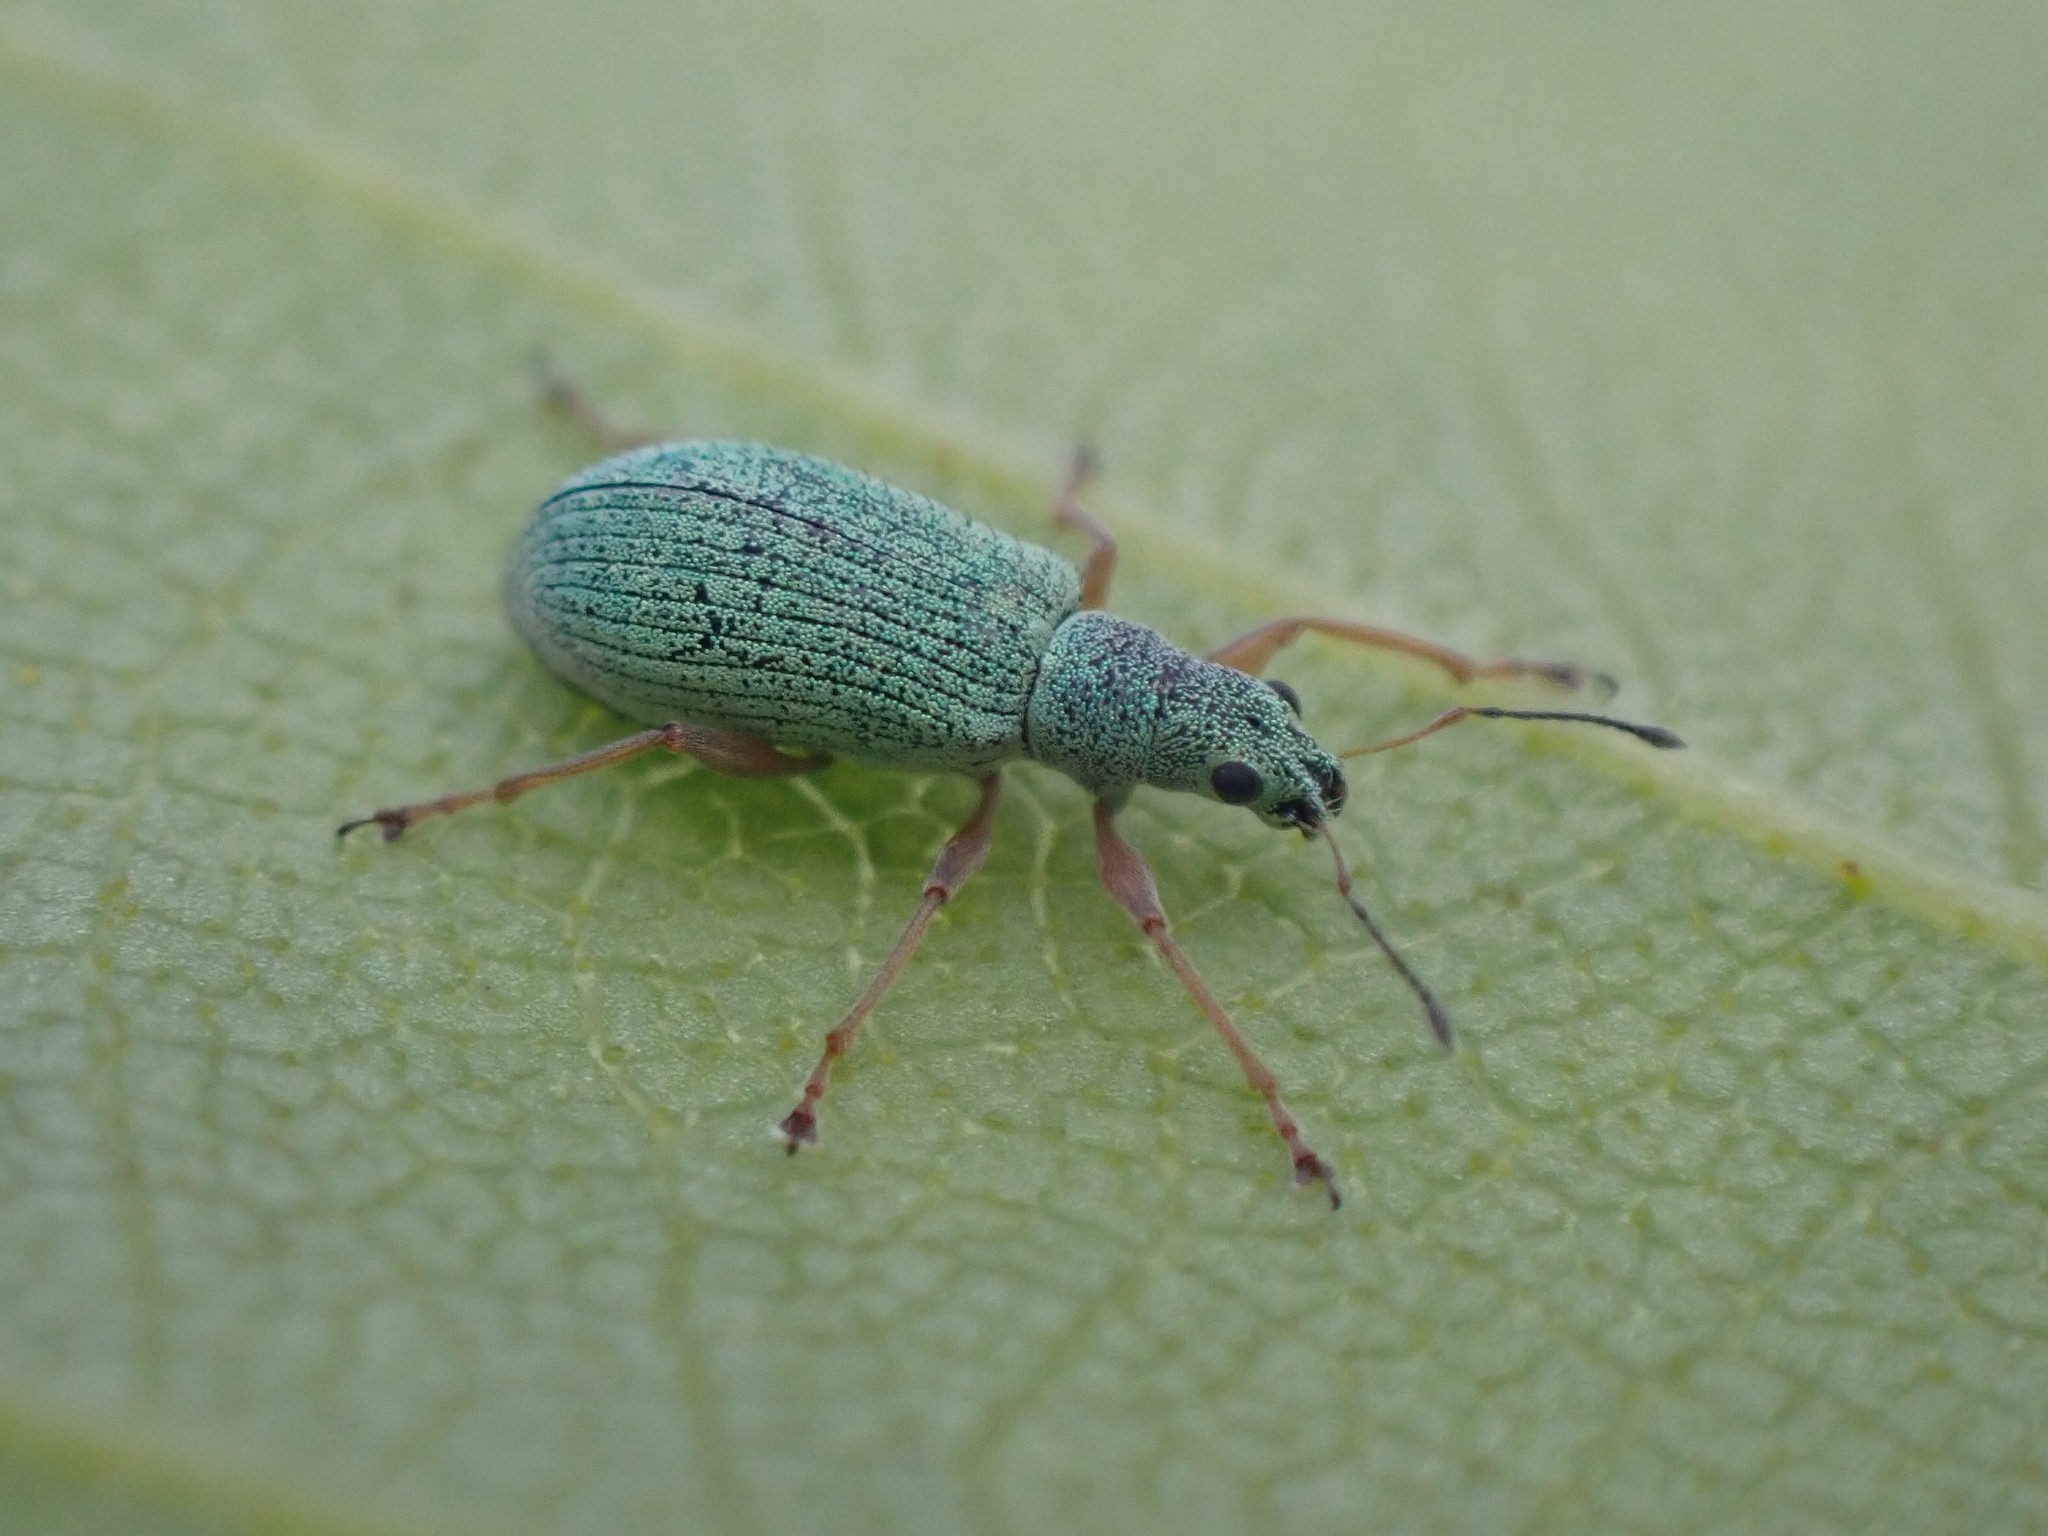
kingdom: Animalia
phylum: Arthropoda
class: Insecta
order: Coleoptera
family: Curculionidae
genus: Polydrusus
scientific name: Polydrusus impressifrons
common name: Weevil
